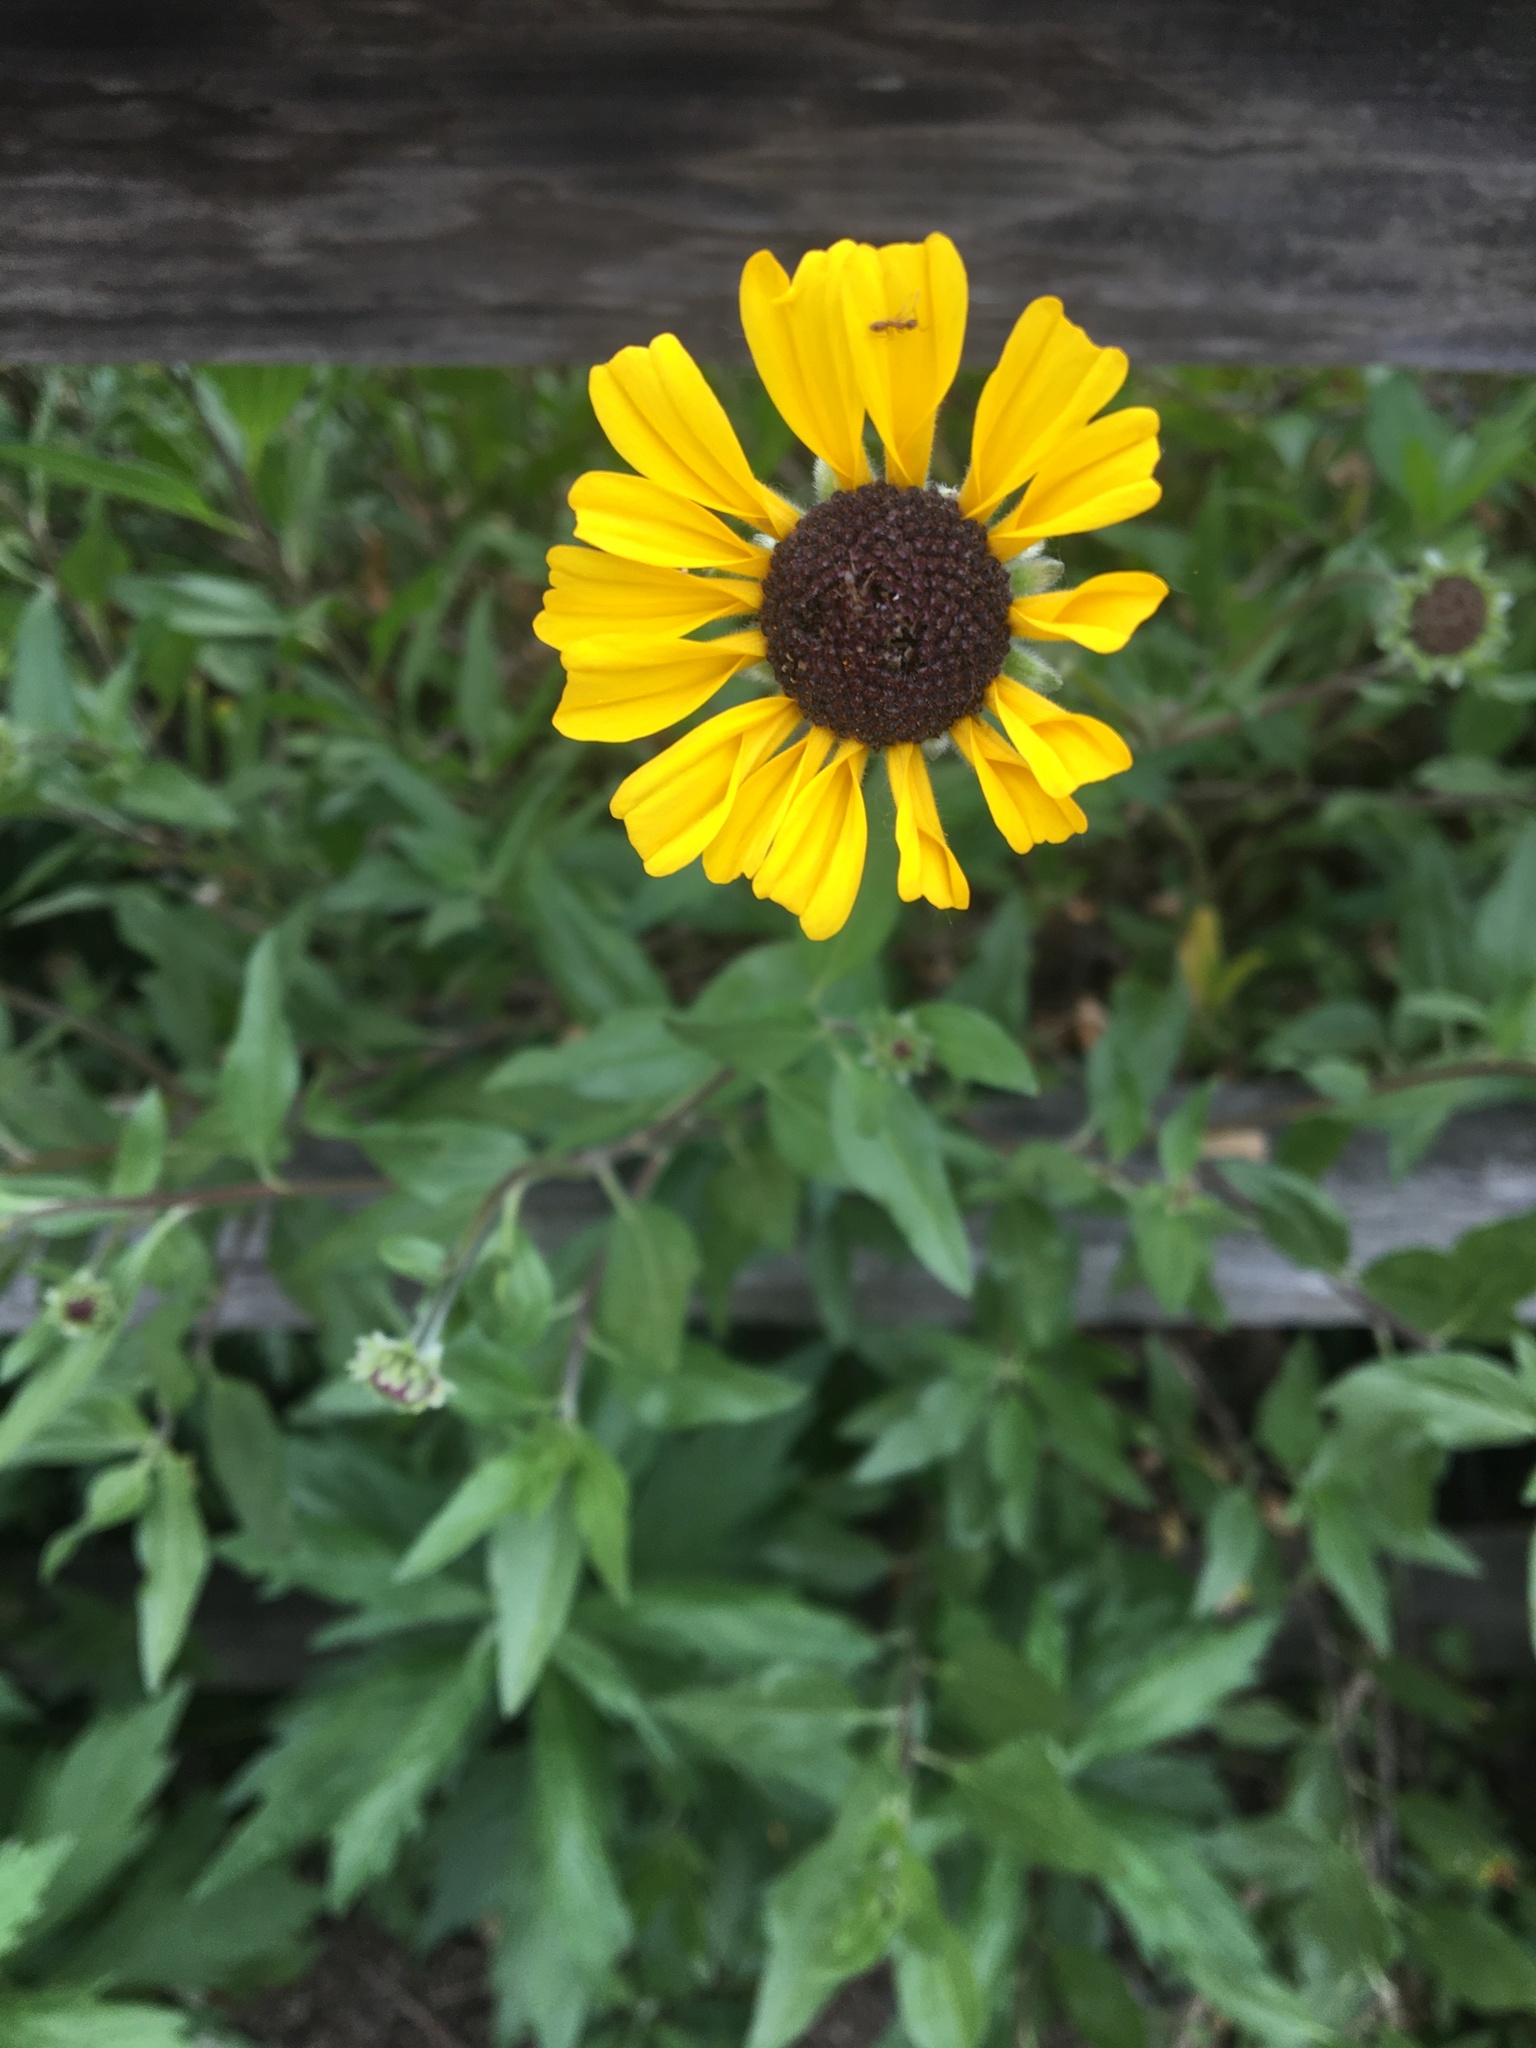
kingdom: Plantae
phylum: Tracheophyta
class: Magnoliopsida
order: Asterales
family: Asteraceae
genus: Encelia
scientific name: Encelia californica
